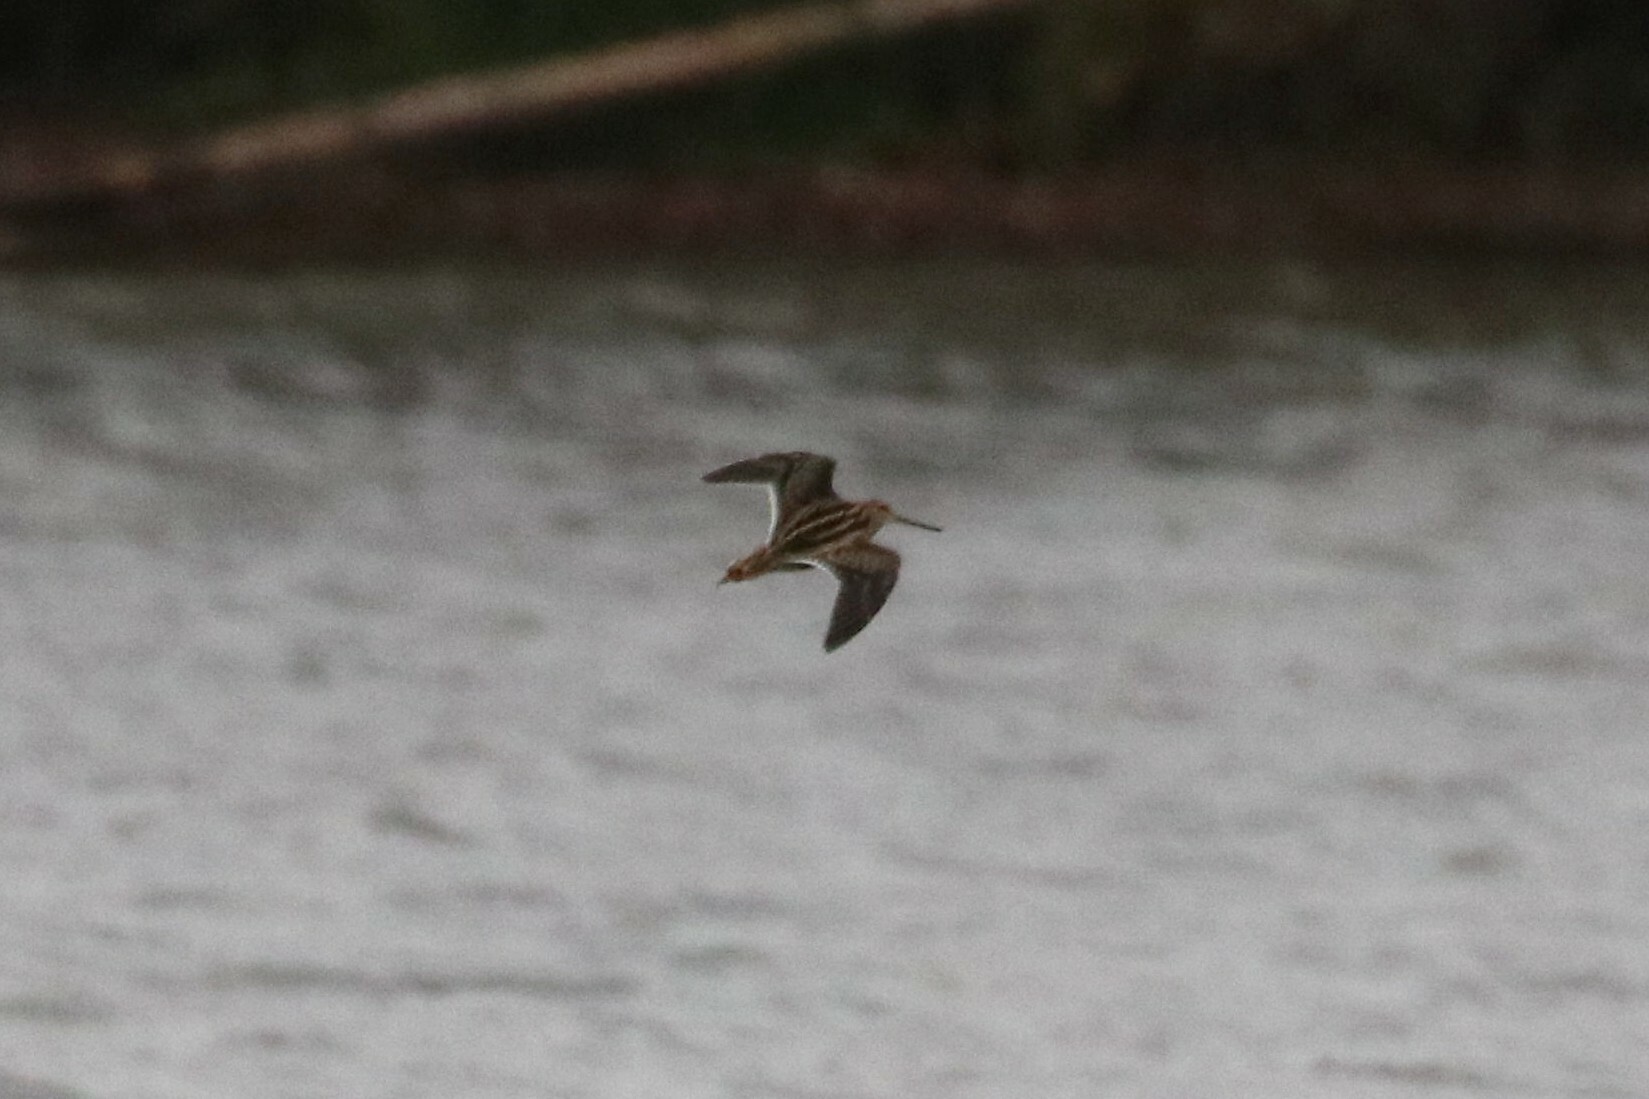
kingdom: Animalia
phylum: Chordata
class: Aves
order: Charadriiformes
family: Scolopacidae
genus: Gallinago
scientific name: Gallinago gallinago
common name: Common snipe
